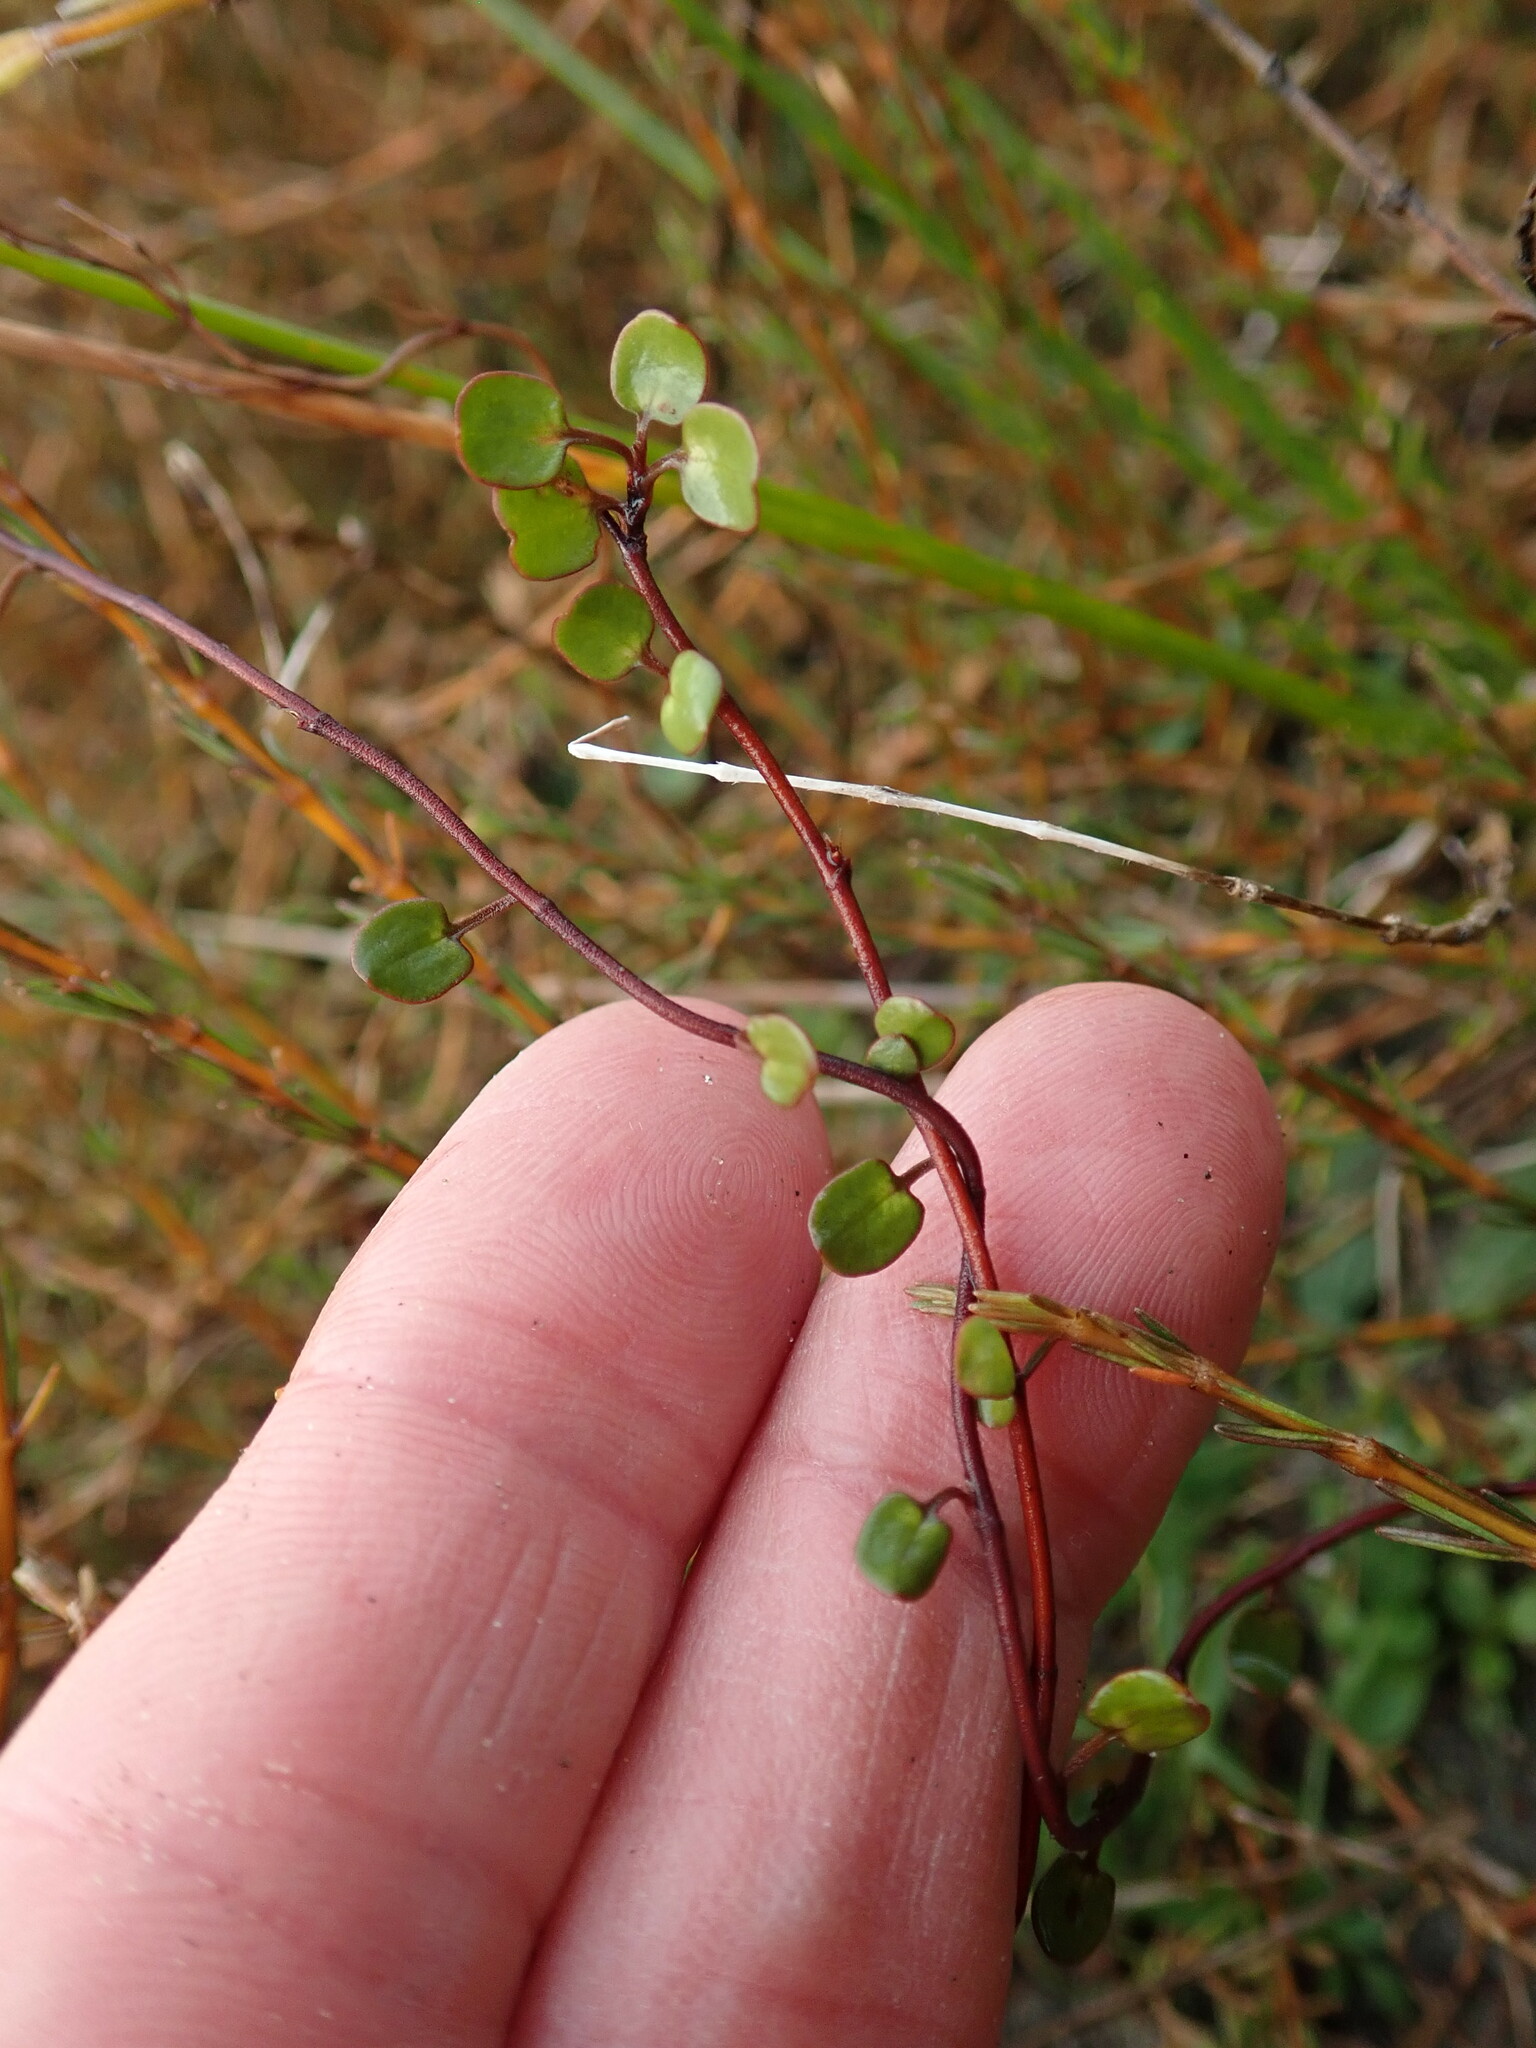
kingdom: Plantae
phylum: Tracheophyta
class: Magnoliopsida
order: Caryophyllales
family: Polygonaceae
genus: Muehlenbeckia
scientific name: Muehlenbeckia complexa
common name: Wireplant
